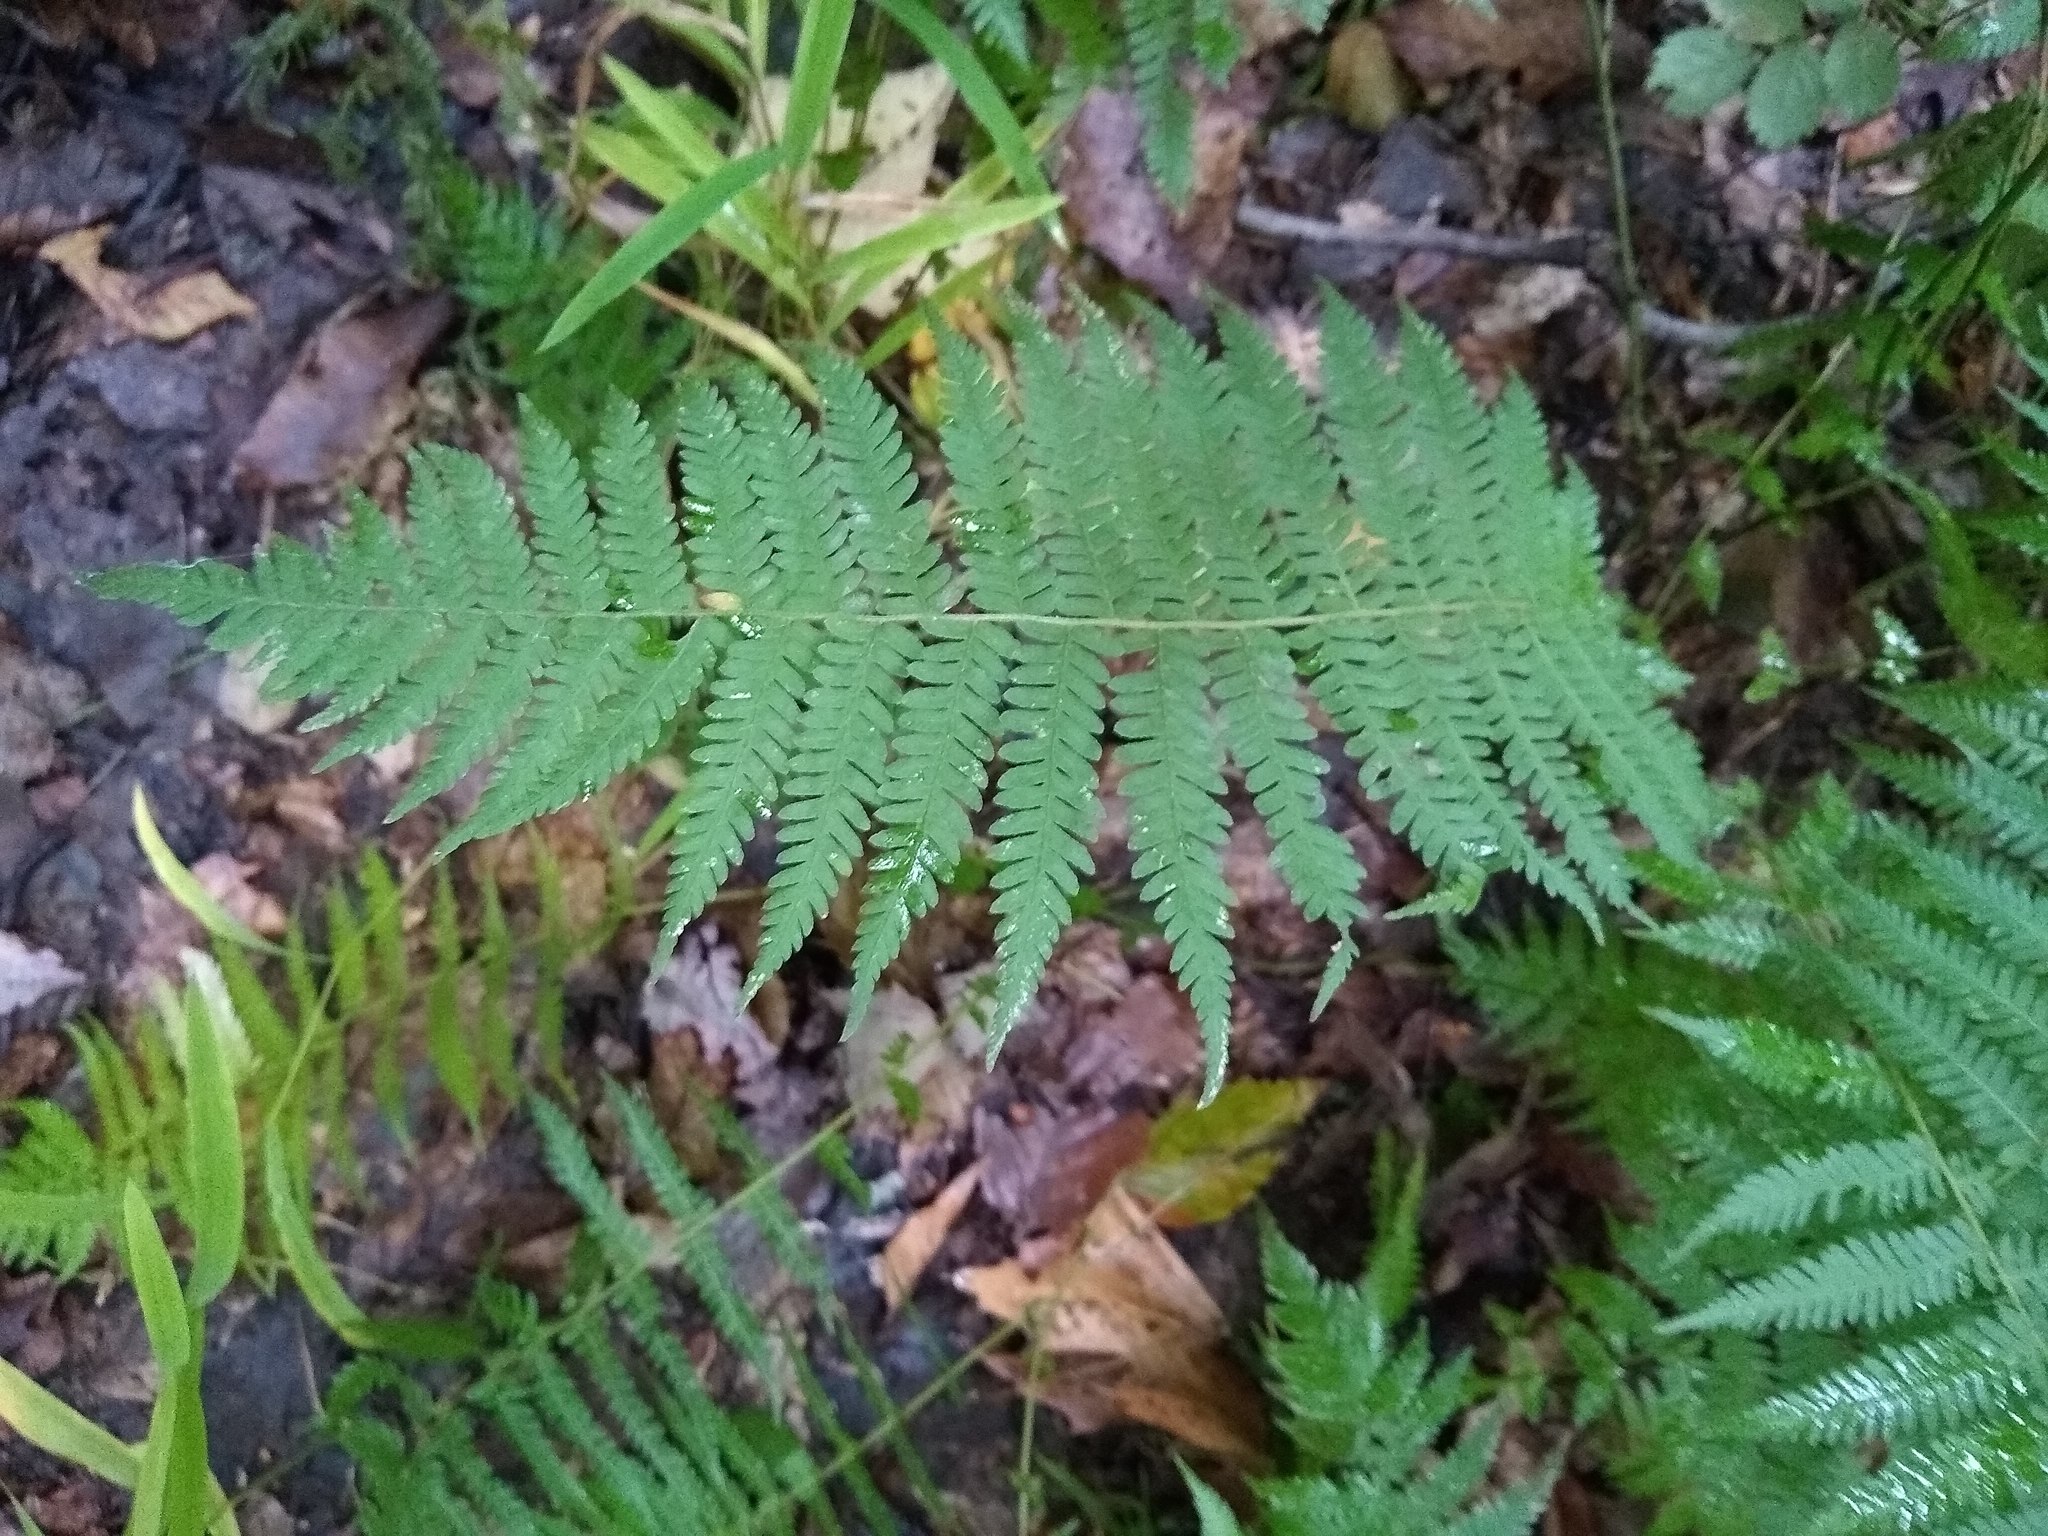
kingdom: Plantae
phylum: Tracheophyta
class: Polypodiopsida
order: Polypodiales
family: Thelypteridaceae
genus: Amauropelta
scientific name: Amauropelta noveboracensis
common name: New york fern
